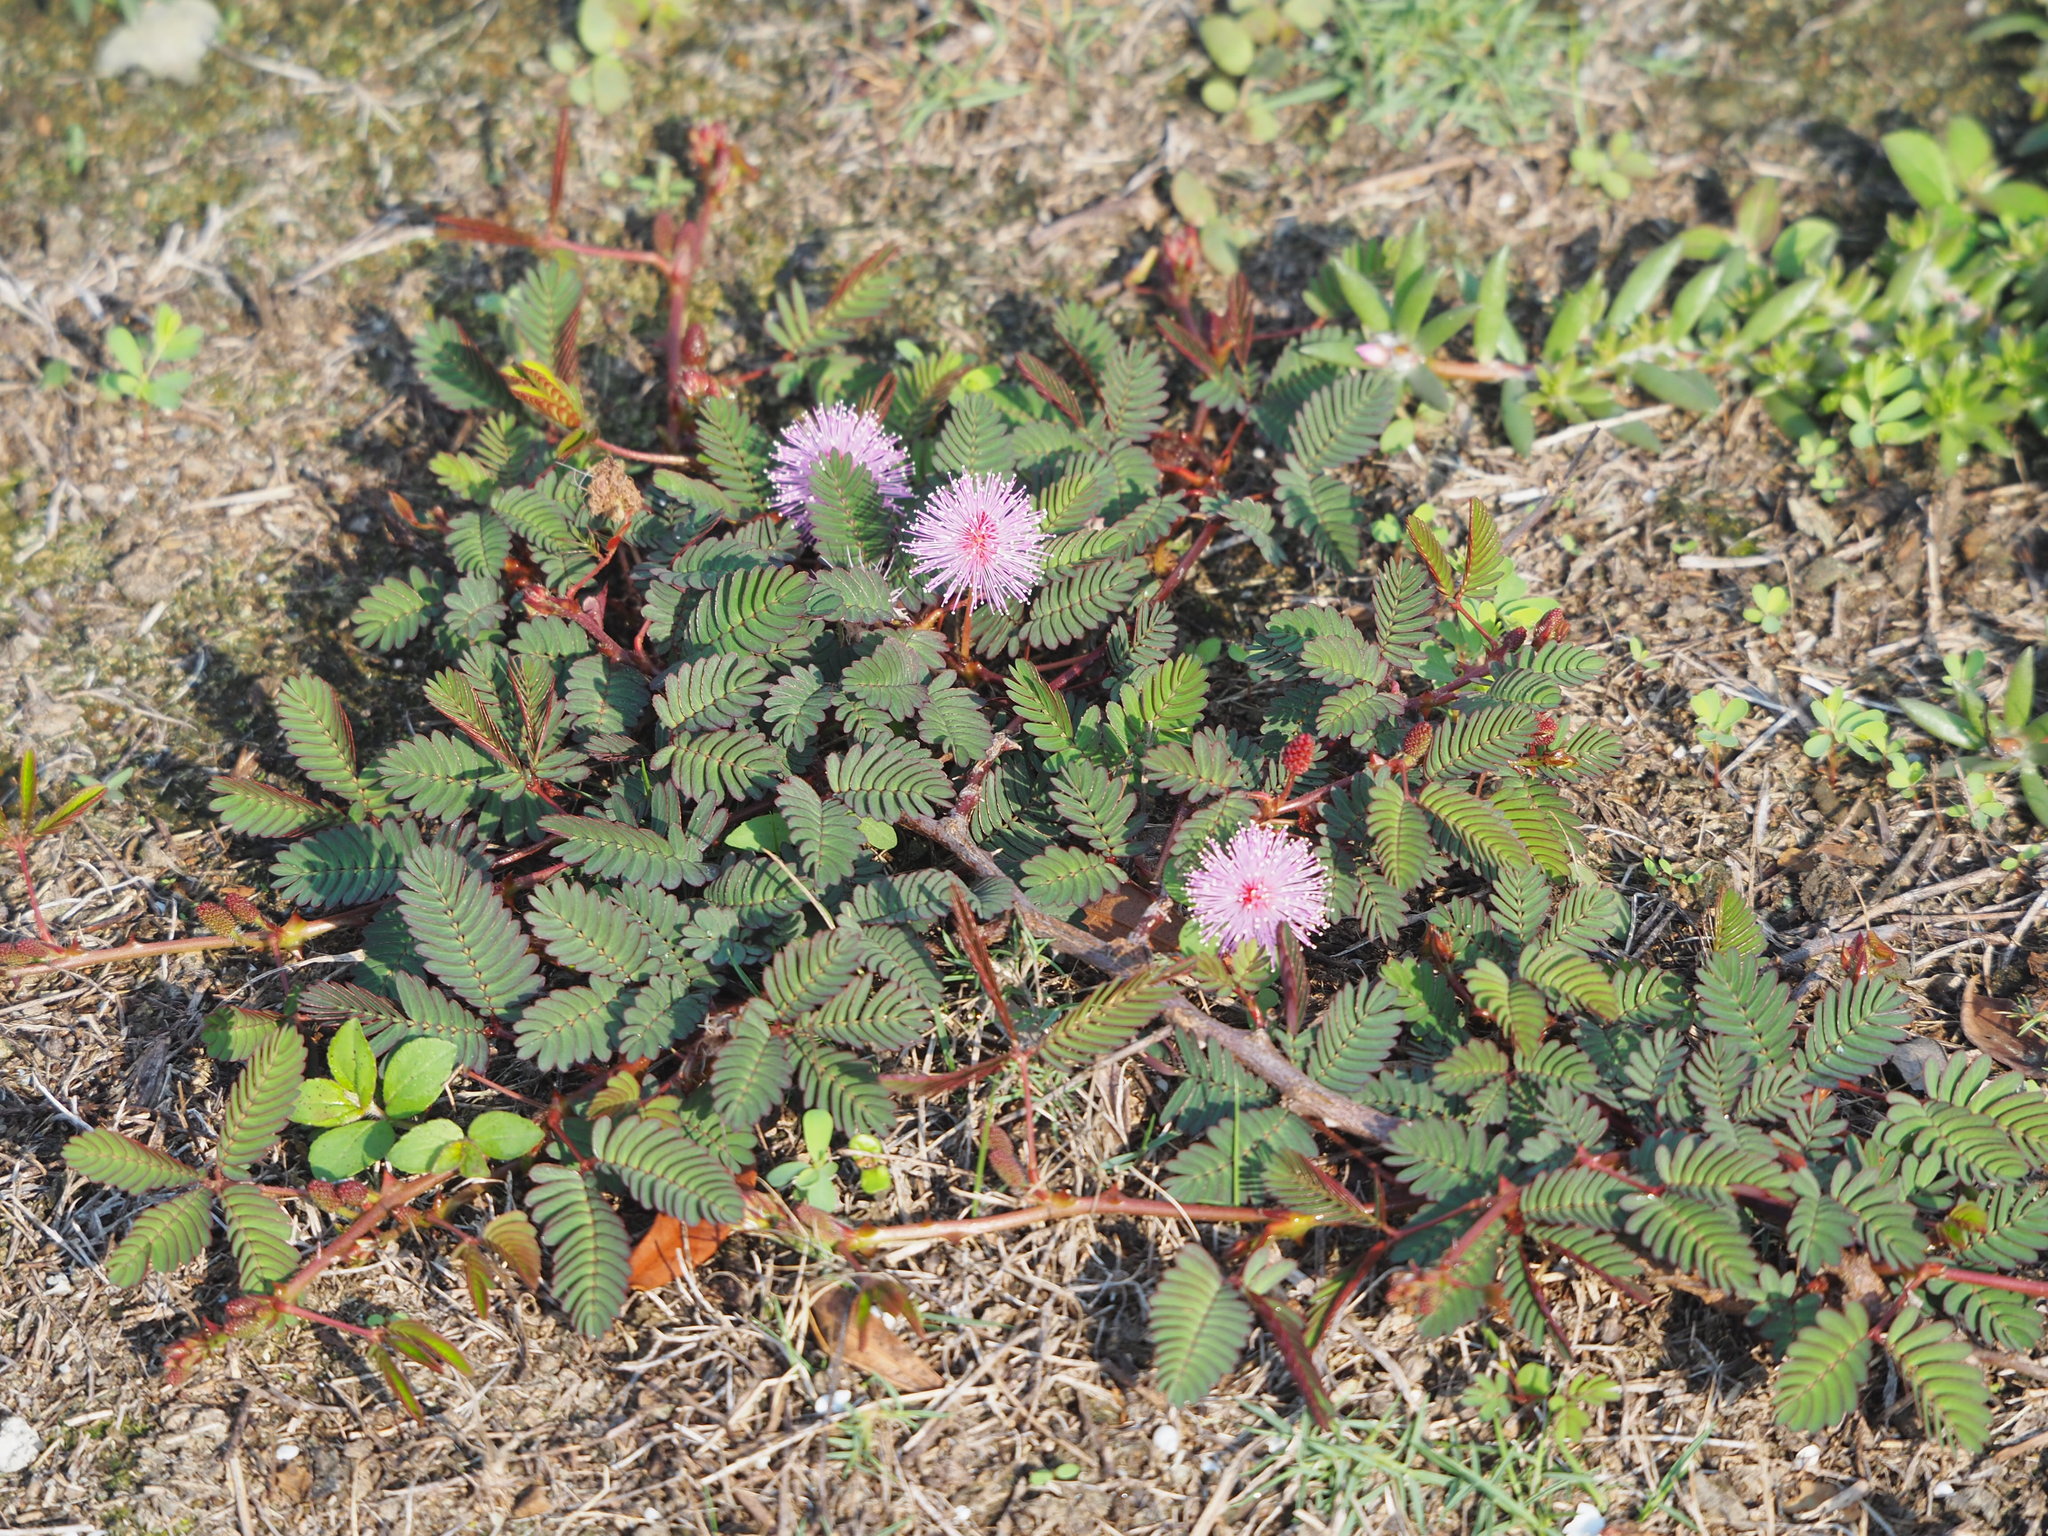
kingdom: Plantae
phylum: Tracheophyta
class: Magnoliopsida
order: Fabales
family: Fabaceae
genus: Mimosa
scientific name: Mimosa pudica
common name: Sensitive plant
